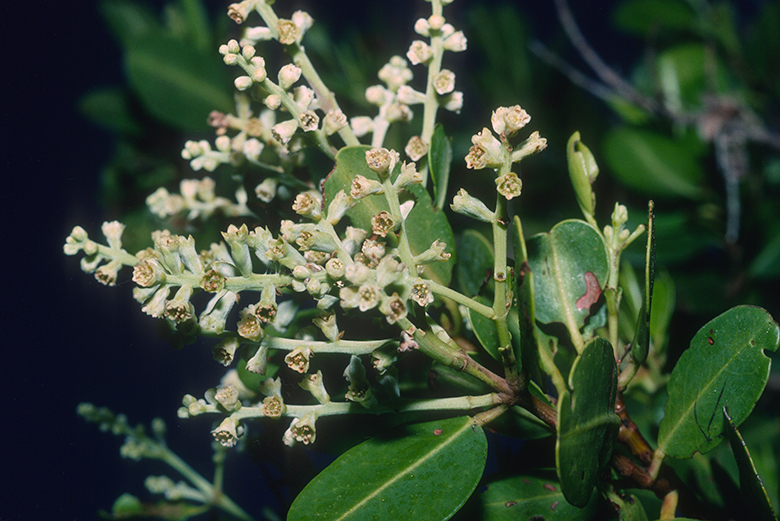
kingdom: Plantae
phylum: Tracheophyta
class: Magnoliopsida
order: Myrtales
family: Combretaceae
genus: Laguncularia
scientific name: Laguncularia racemosa
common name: White mangrove
